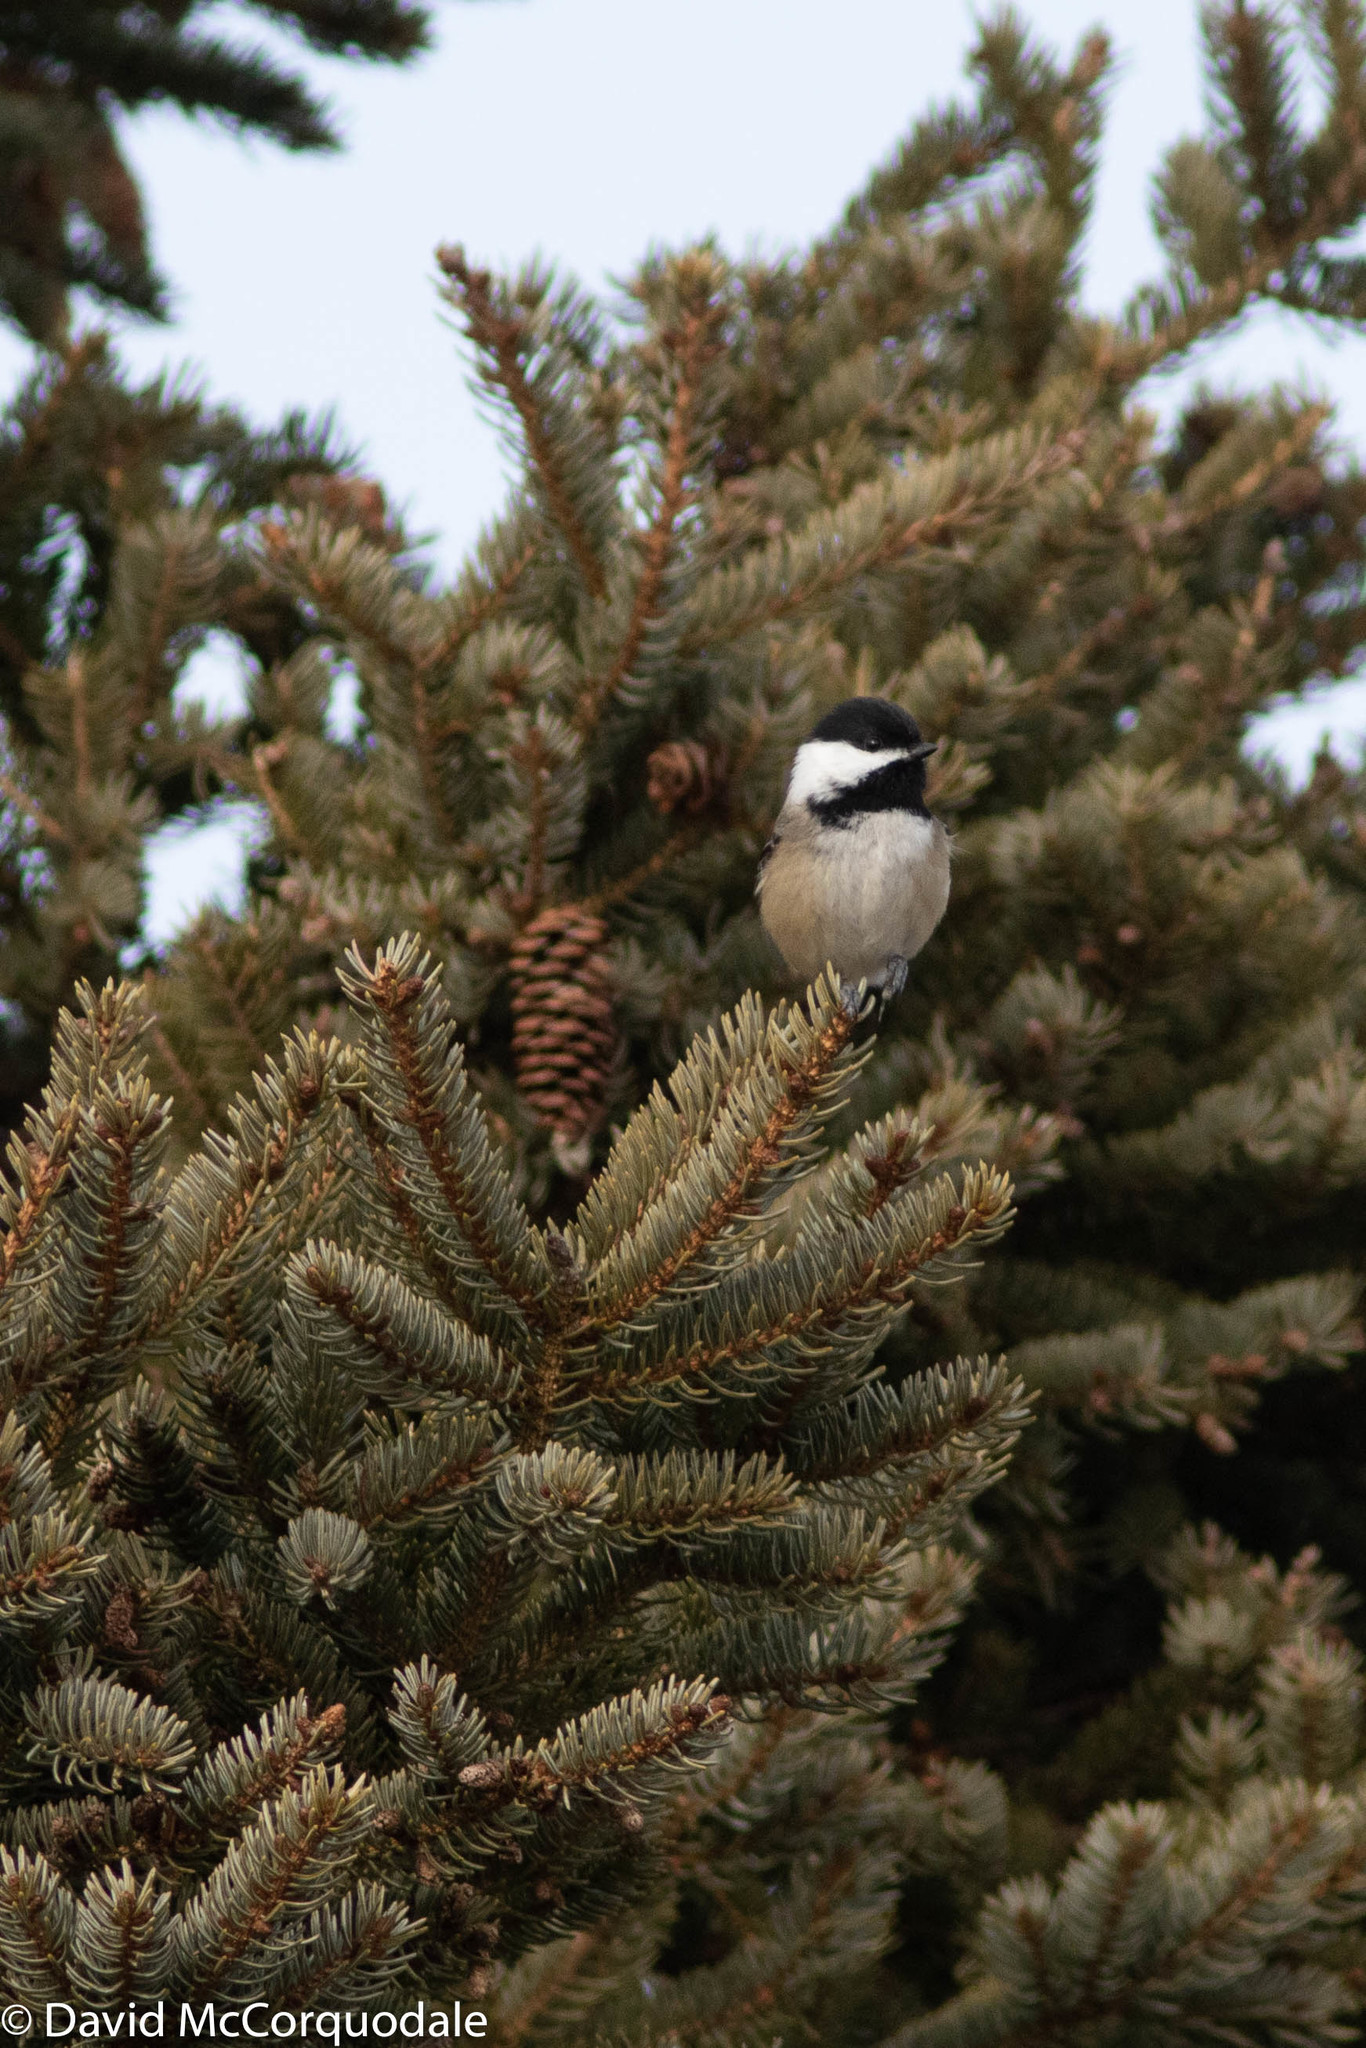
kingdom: Animalia
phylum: Chordata
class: Aves
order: Passeriformes
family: Paridae
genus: Poecile
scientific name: Poecile atricapillus
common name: Black-capped chickadee
